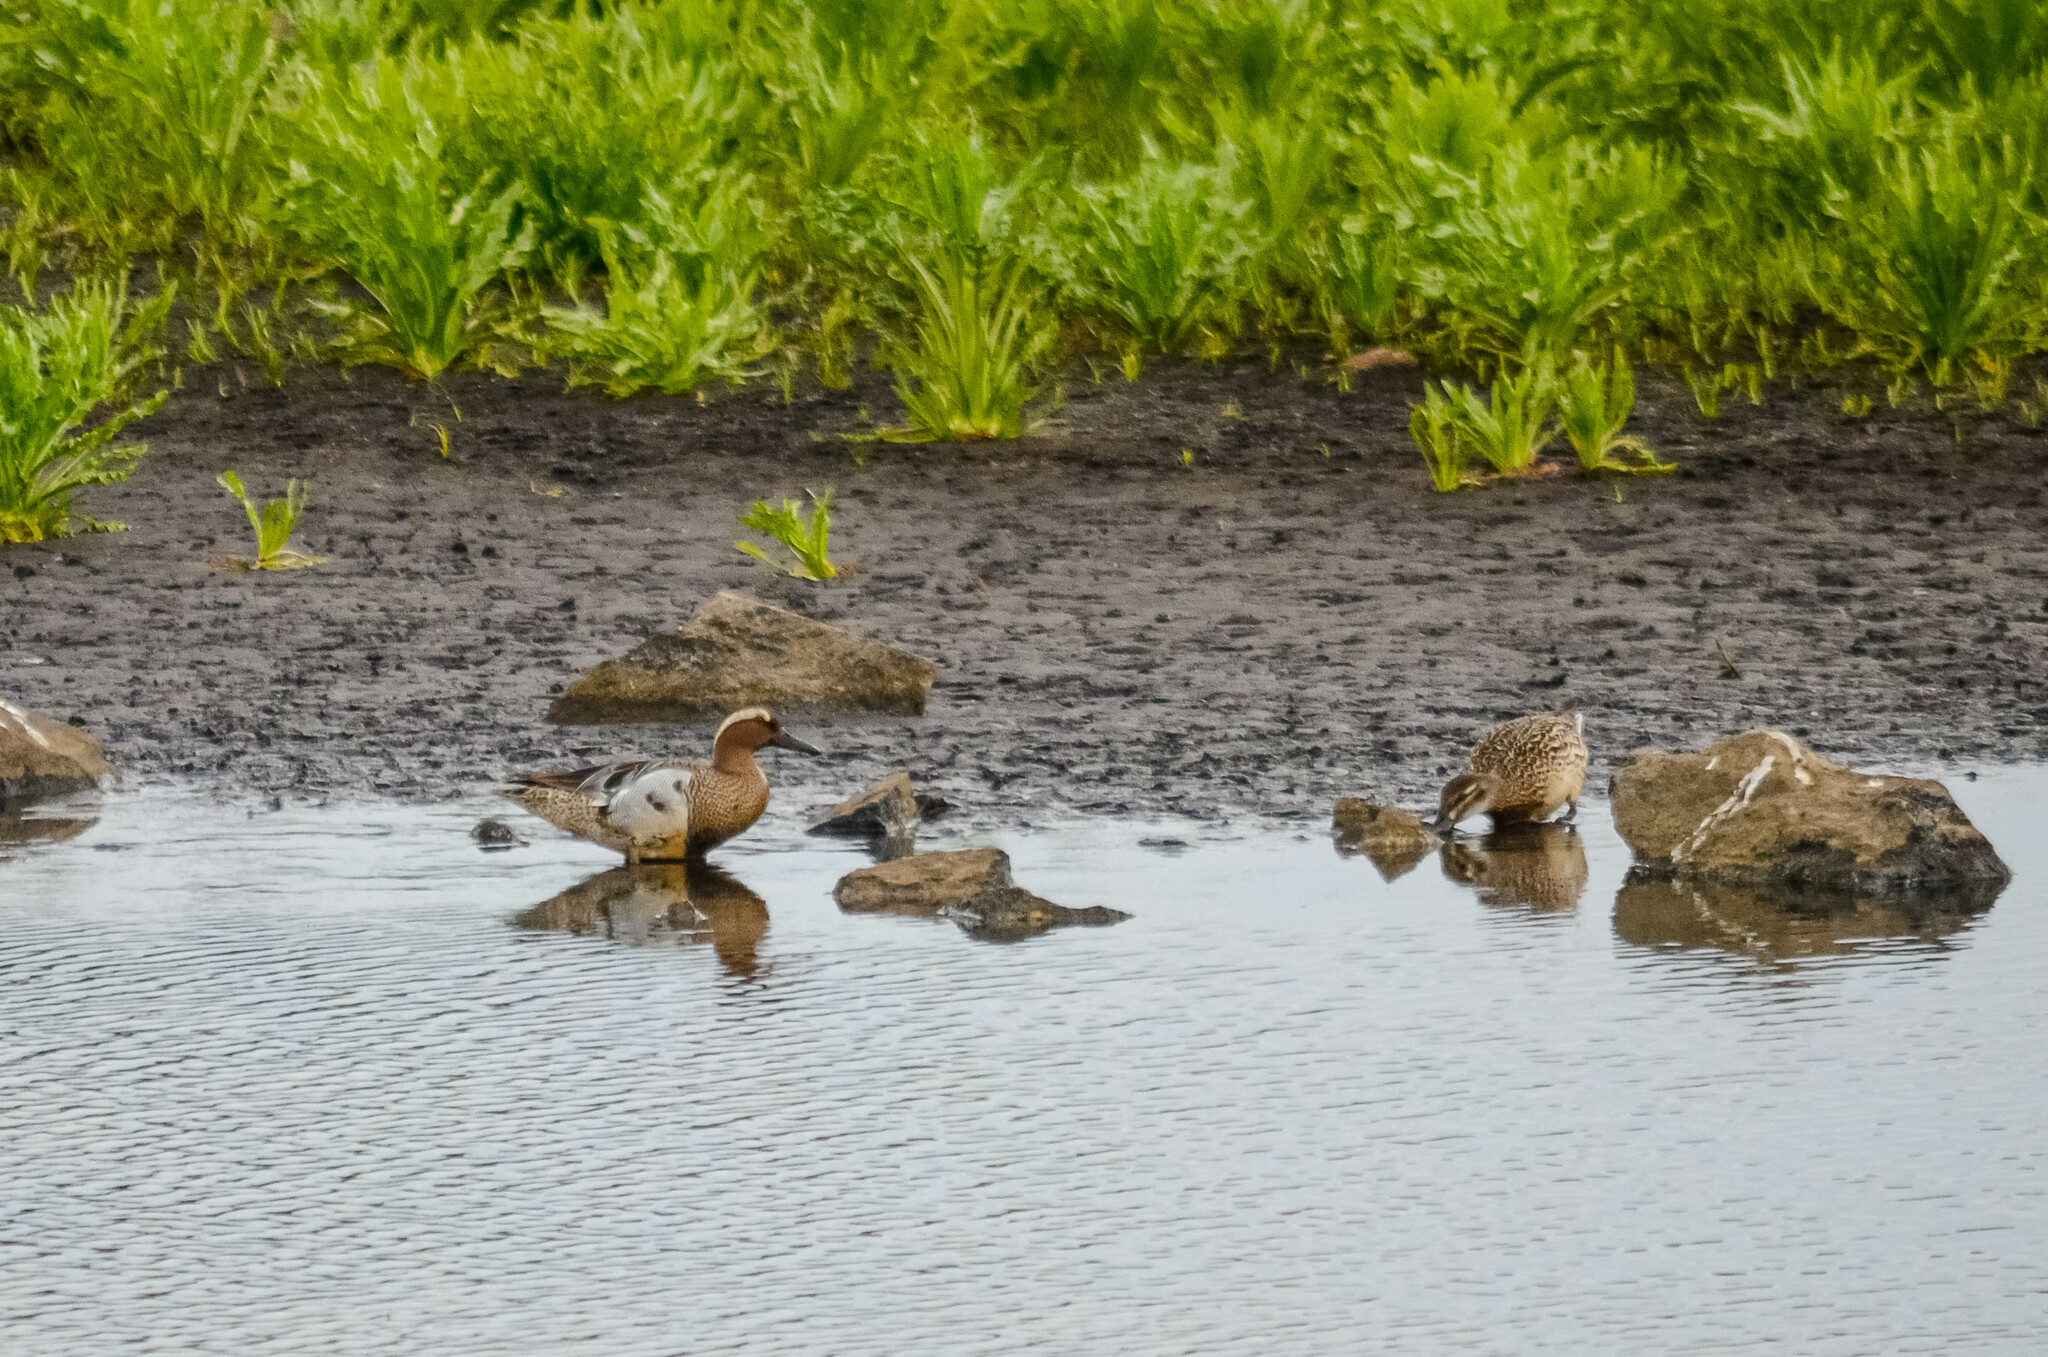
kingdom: Animalia
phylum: Chordata
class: Aves
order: Anseriformes
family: Anatidae
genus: Spatula
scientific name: Spatula querquedula
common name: Garganey
